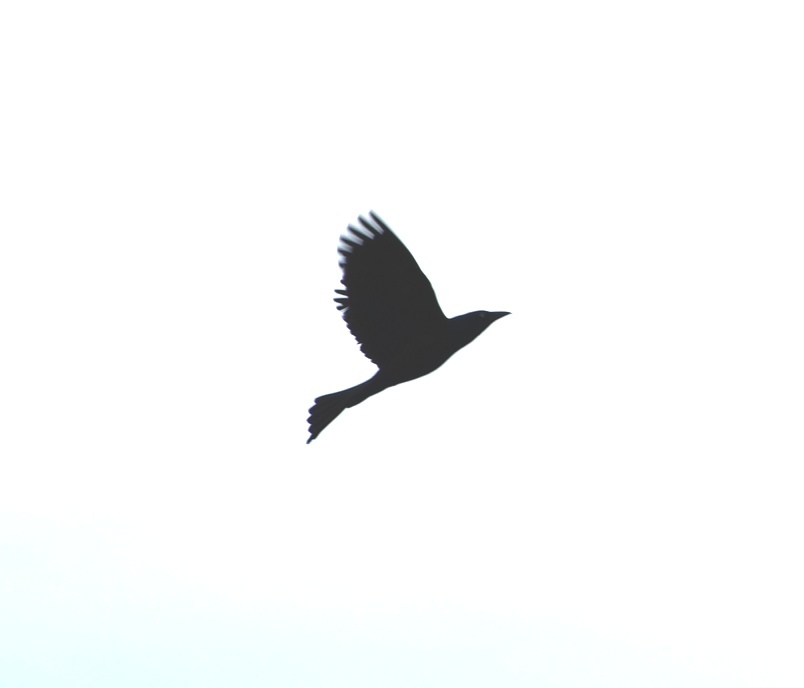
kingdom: Animalia
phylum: Chordata
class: Aves
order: Passeriformes
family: Corvidae
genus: Corvus
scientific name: Corvus brachyrhynchos
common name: American crow
